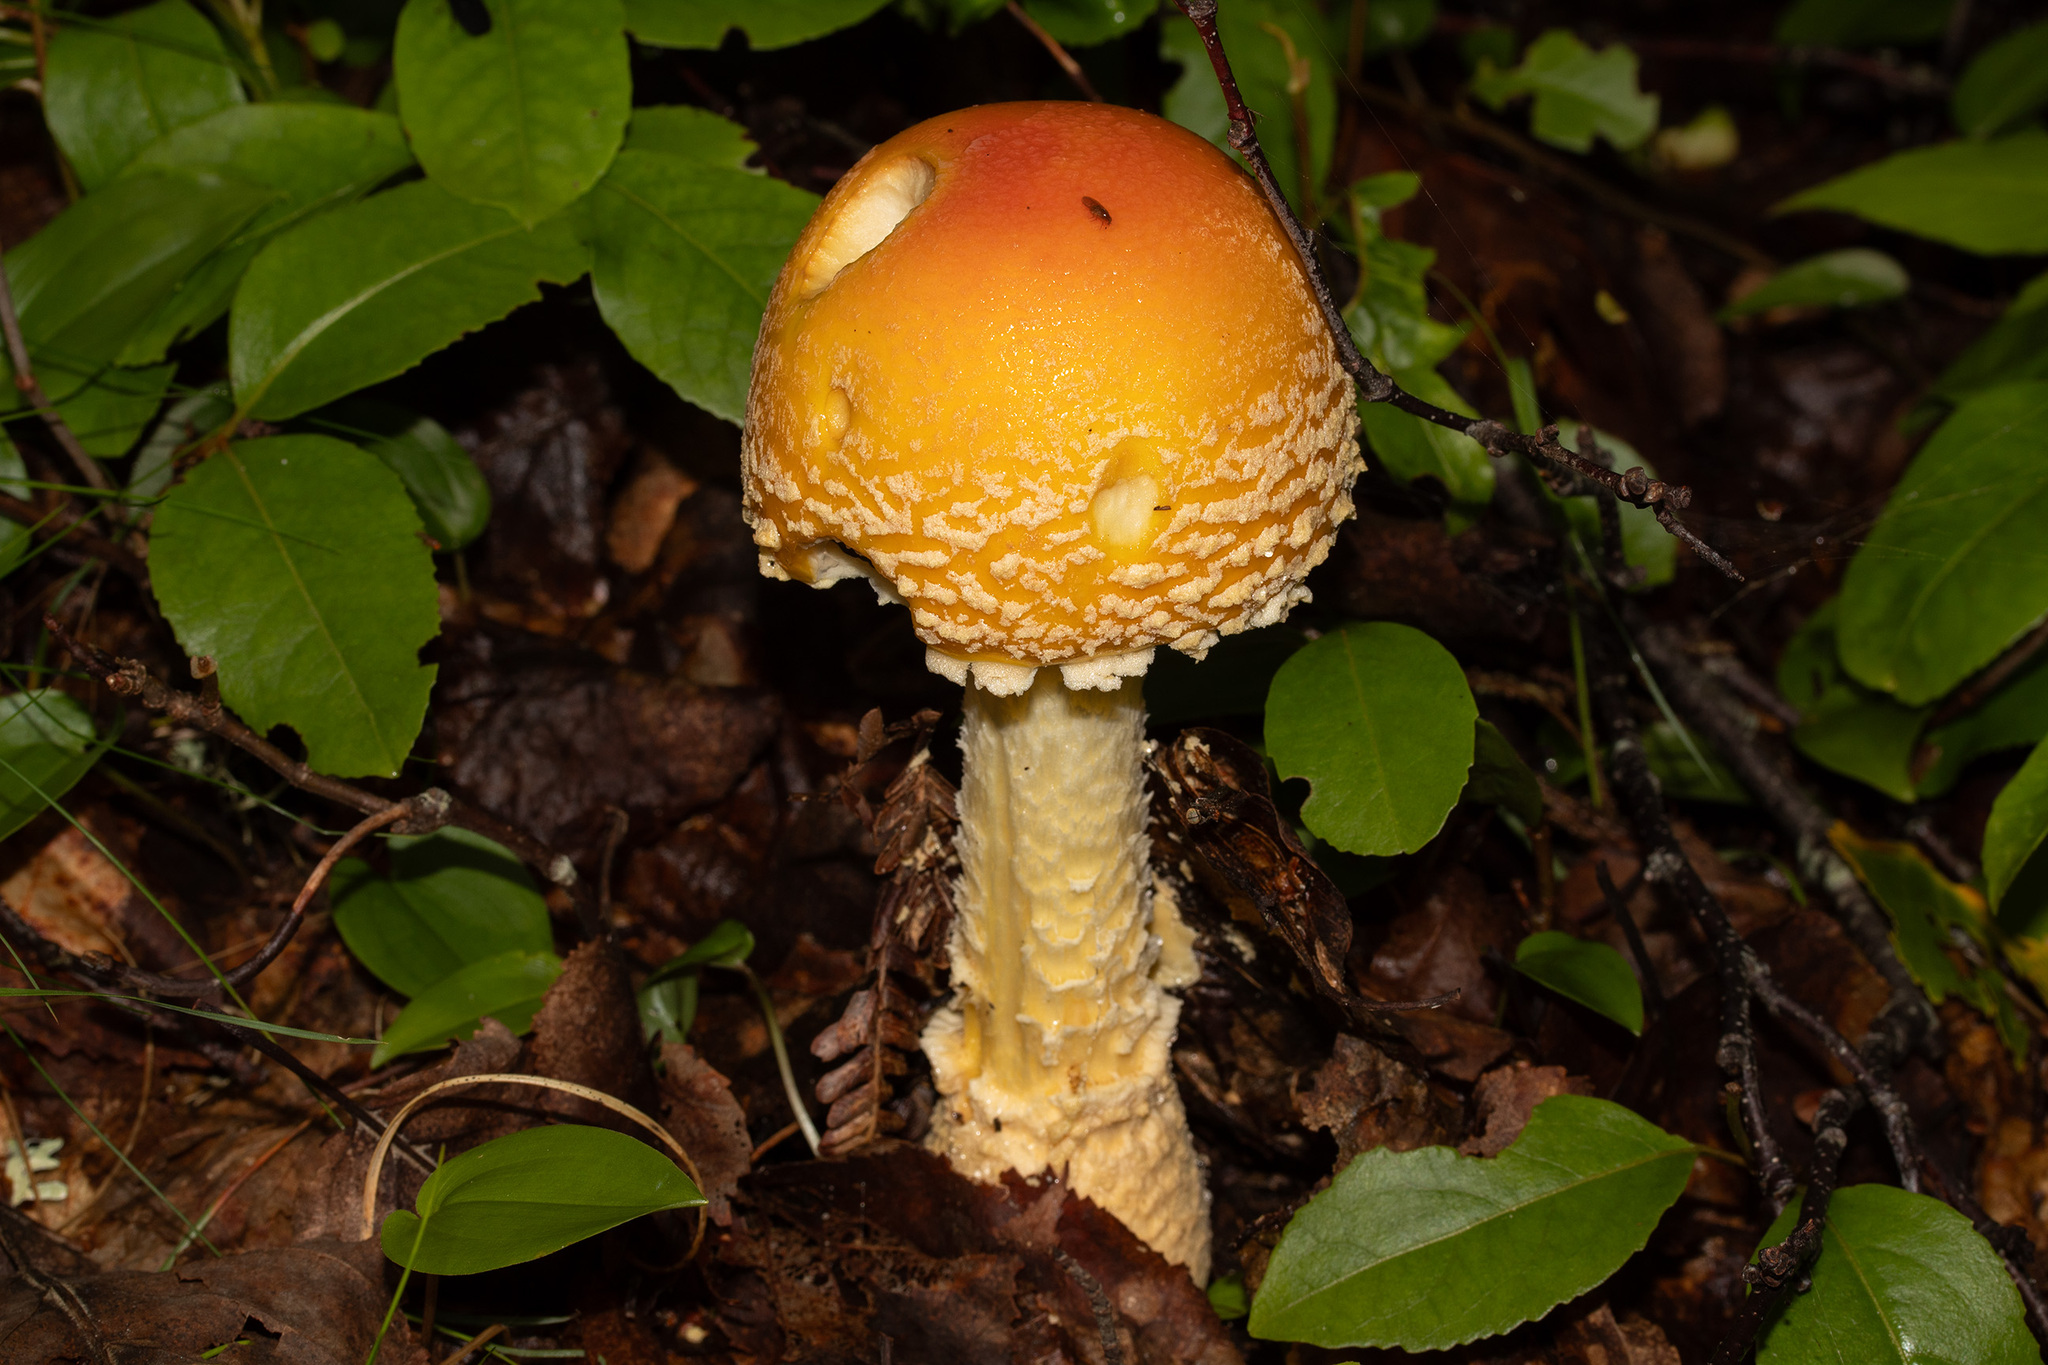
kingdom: Fungi
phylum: Basidiomycota
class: Agaricomycetes
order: Agaricales
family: Amanitaceae
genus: Amanita
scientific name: Amanita muscaria
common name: Fly agaric
